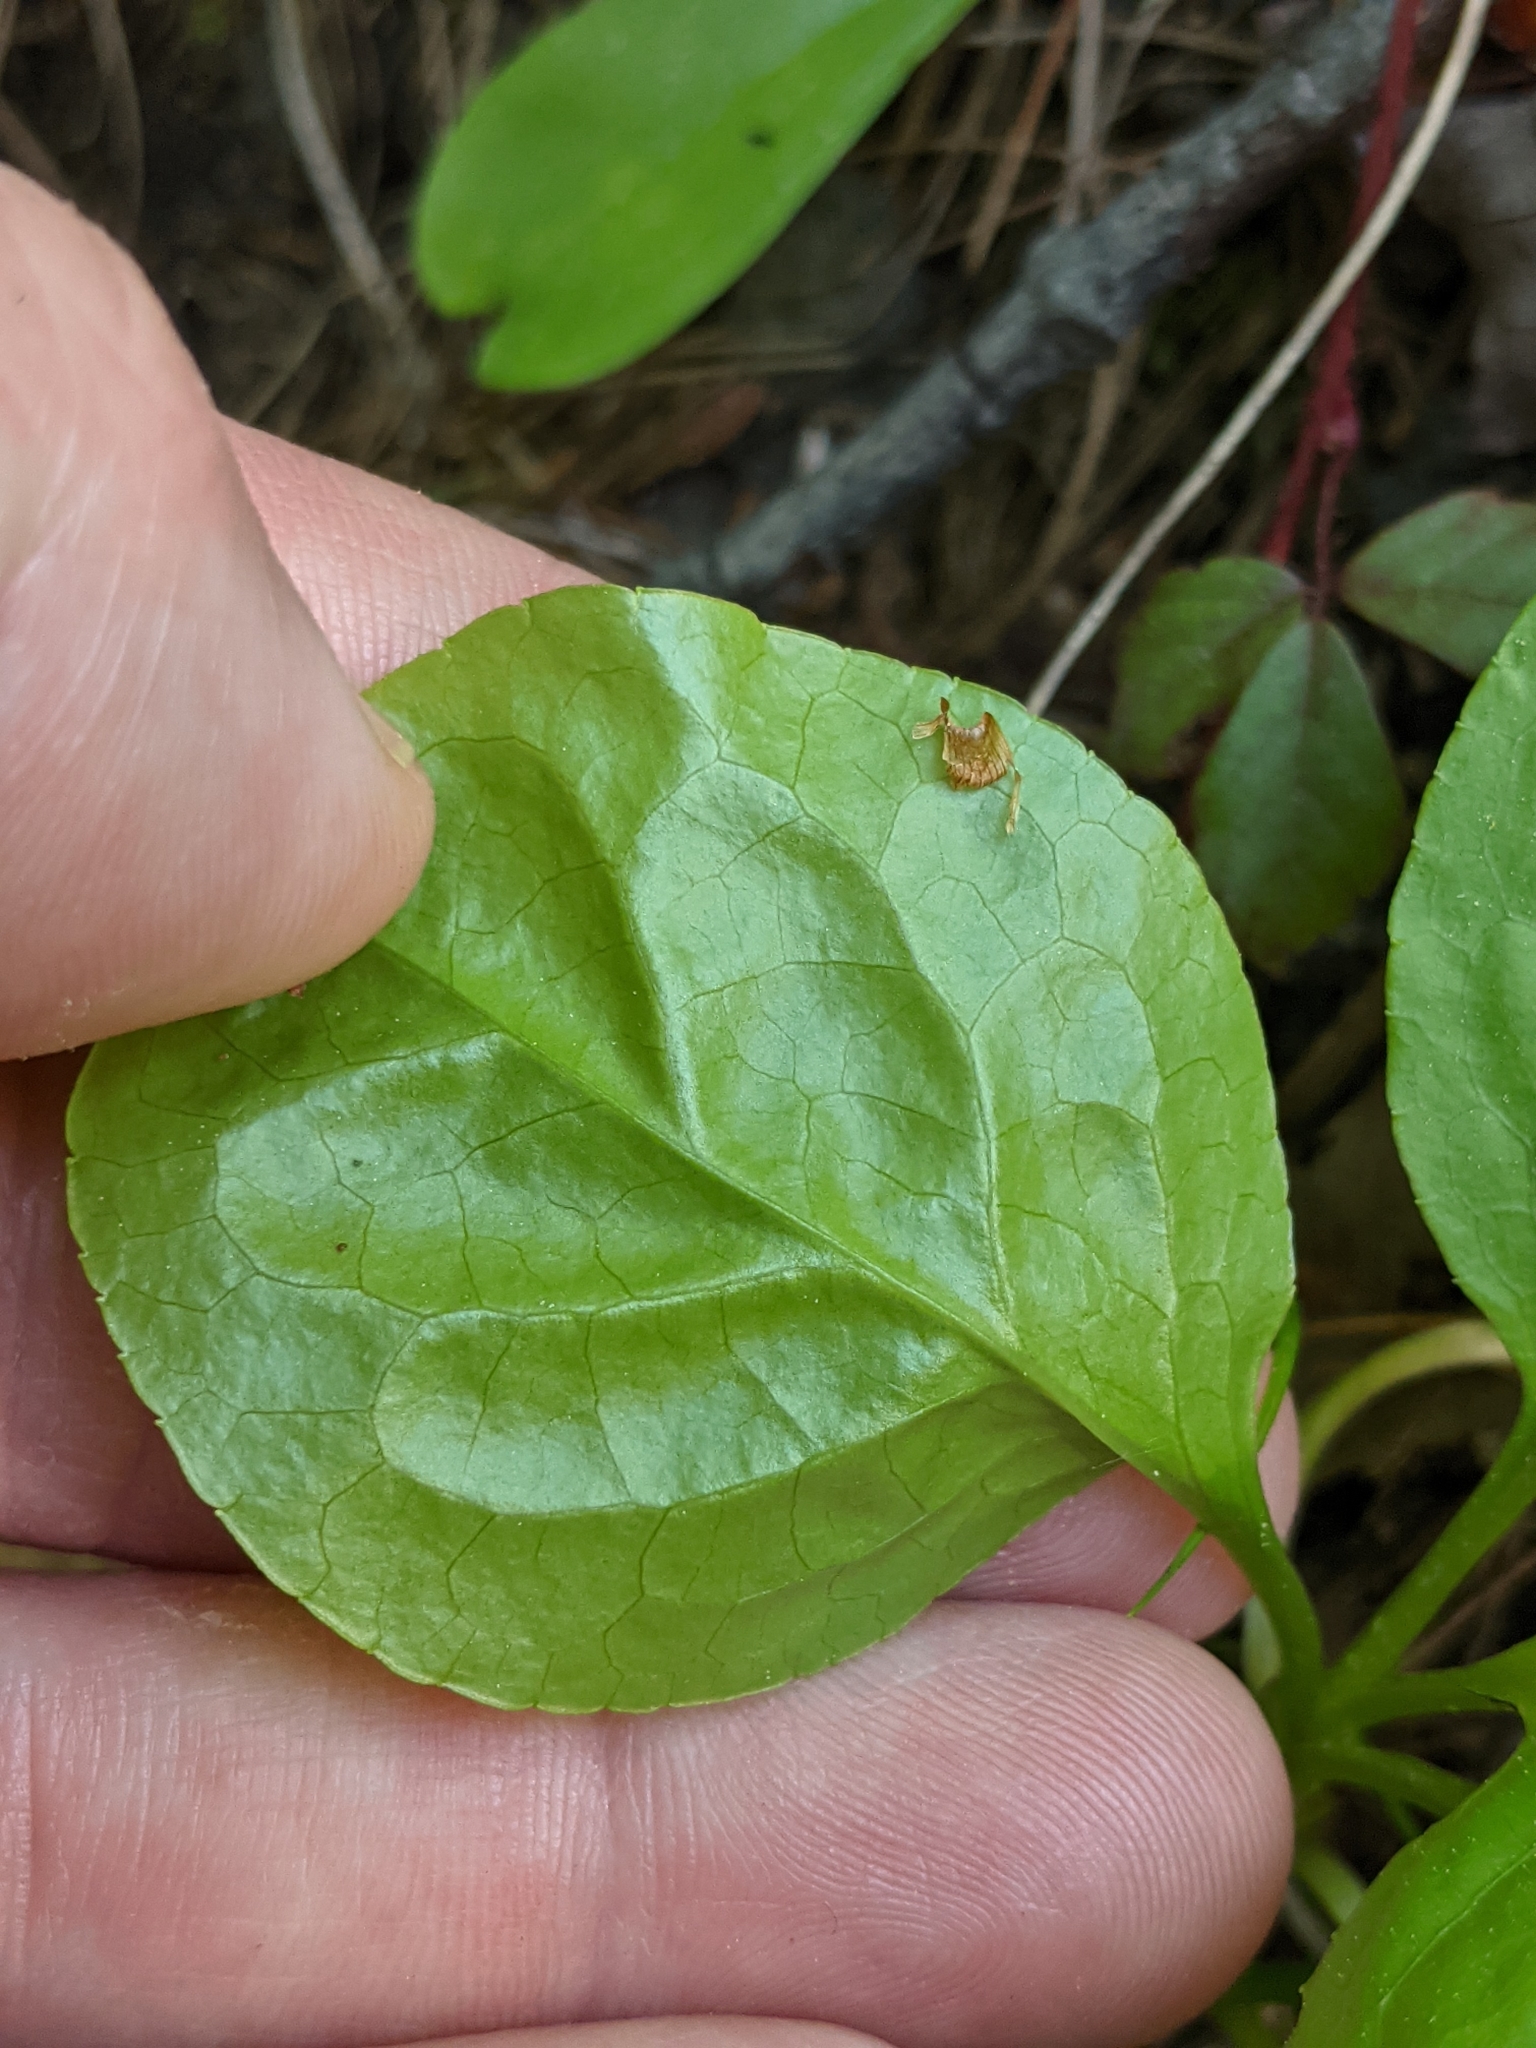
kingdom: Plantae
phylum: Tracheophyta
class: Magnoliopsida
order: Ericales
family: Ericaceae
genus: Pyrola
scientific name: Pyrola elliptica
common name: Shinleaf
